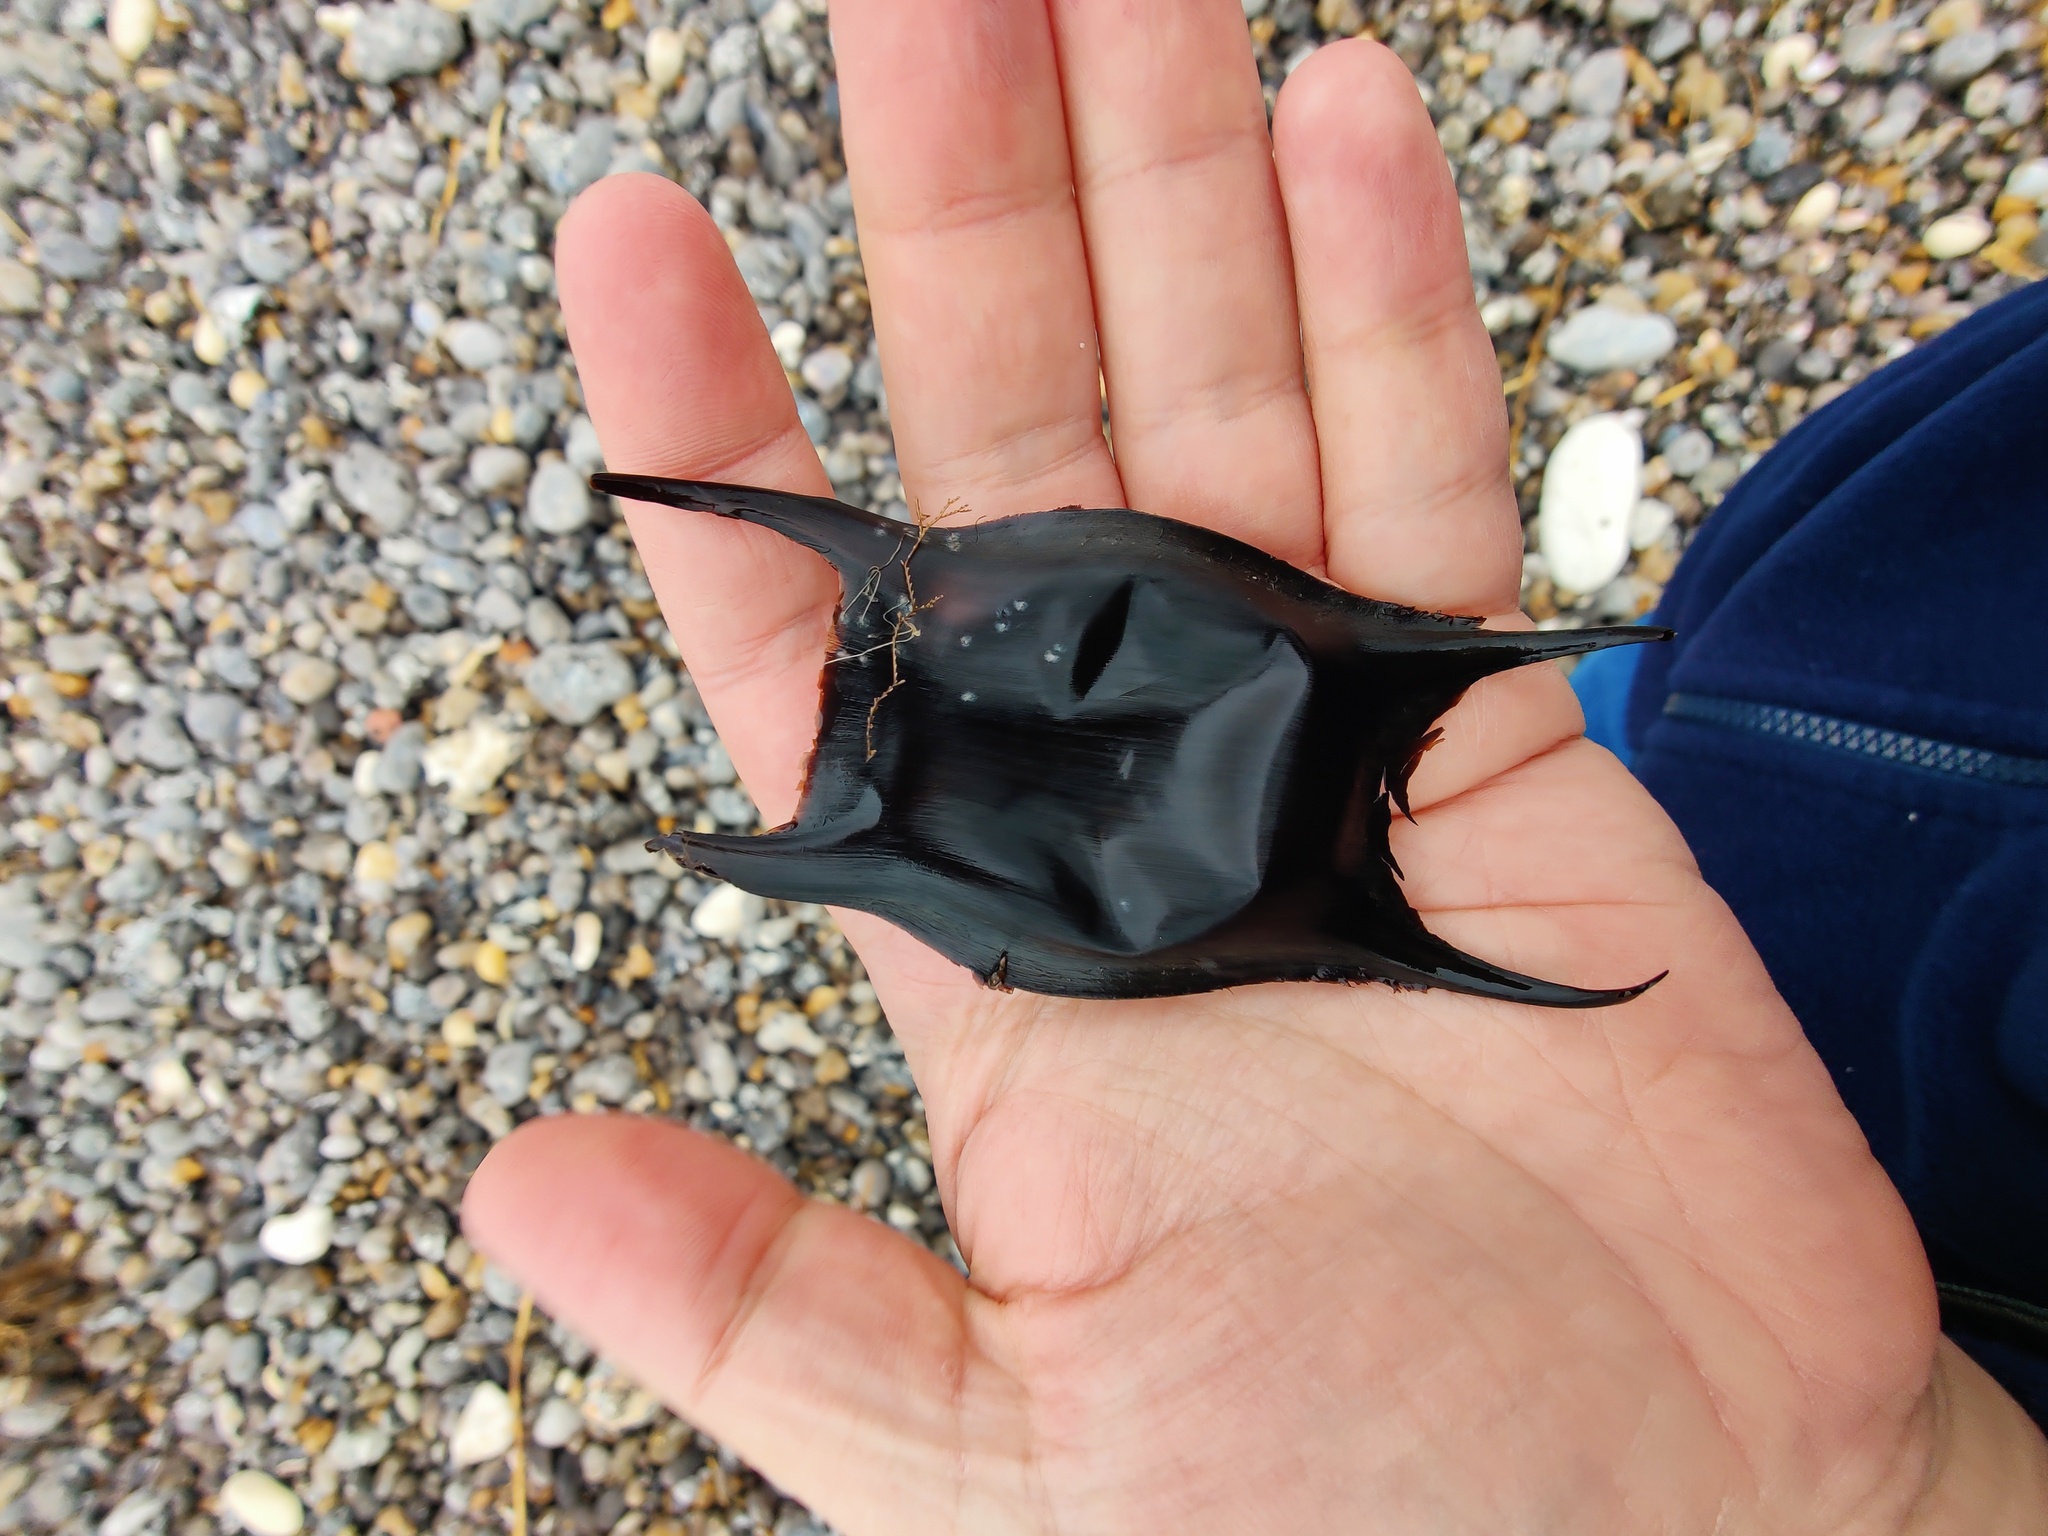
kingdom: Animalia
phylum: Chordata
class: Elasmobranchii
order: Rajiformes
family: Rajidae
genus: Raja
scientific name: Raja clavata
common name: Thornback ray
